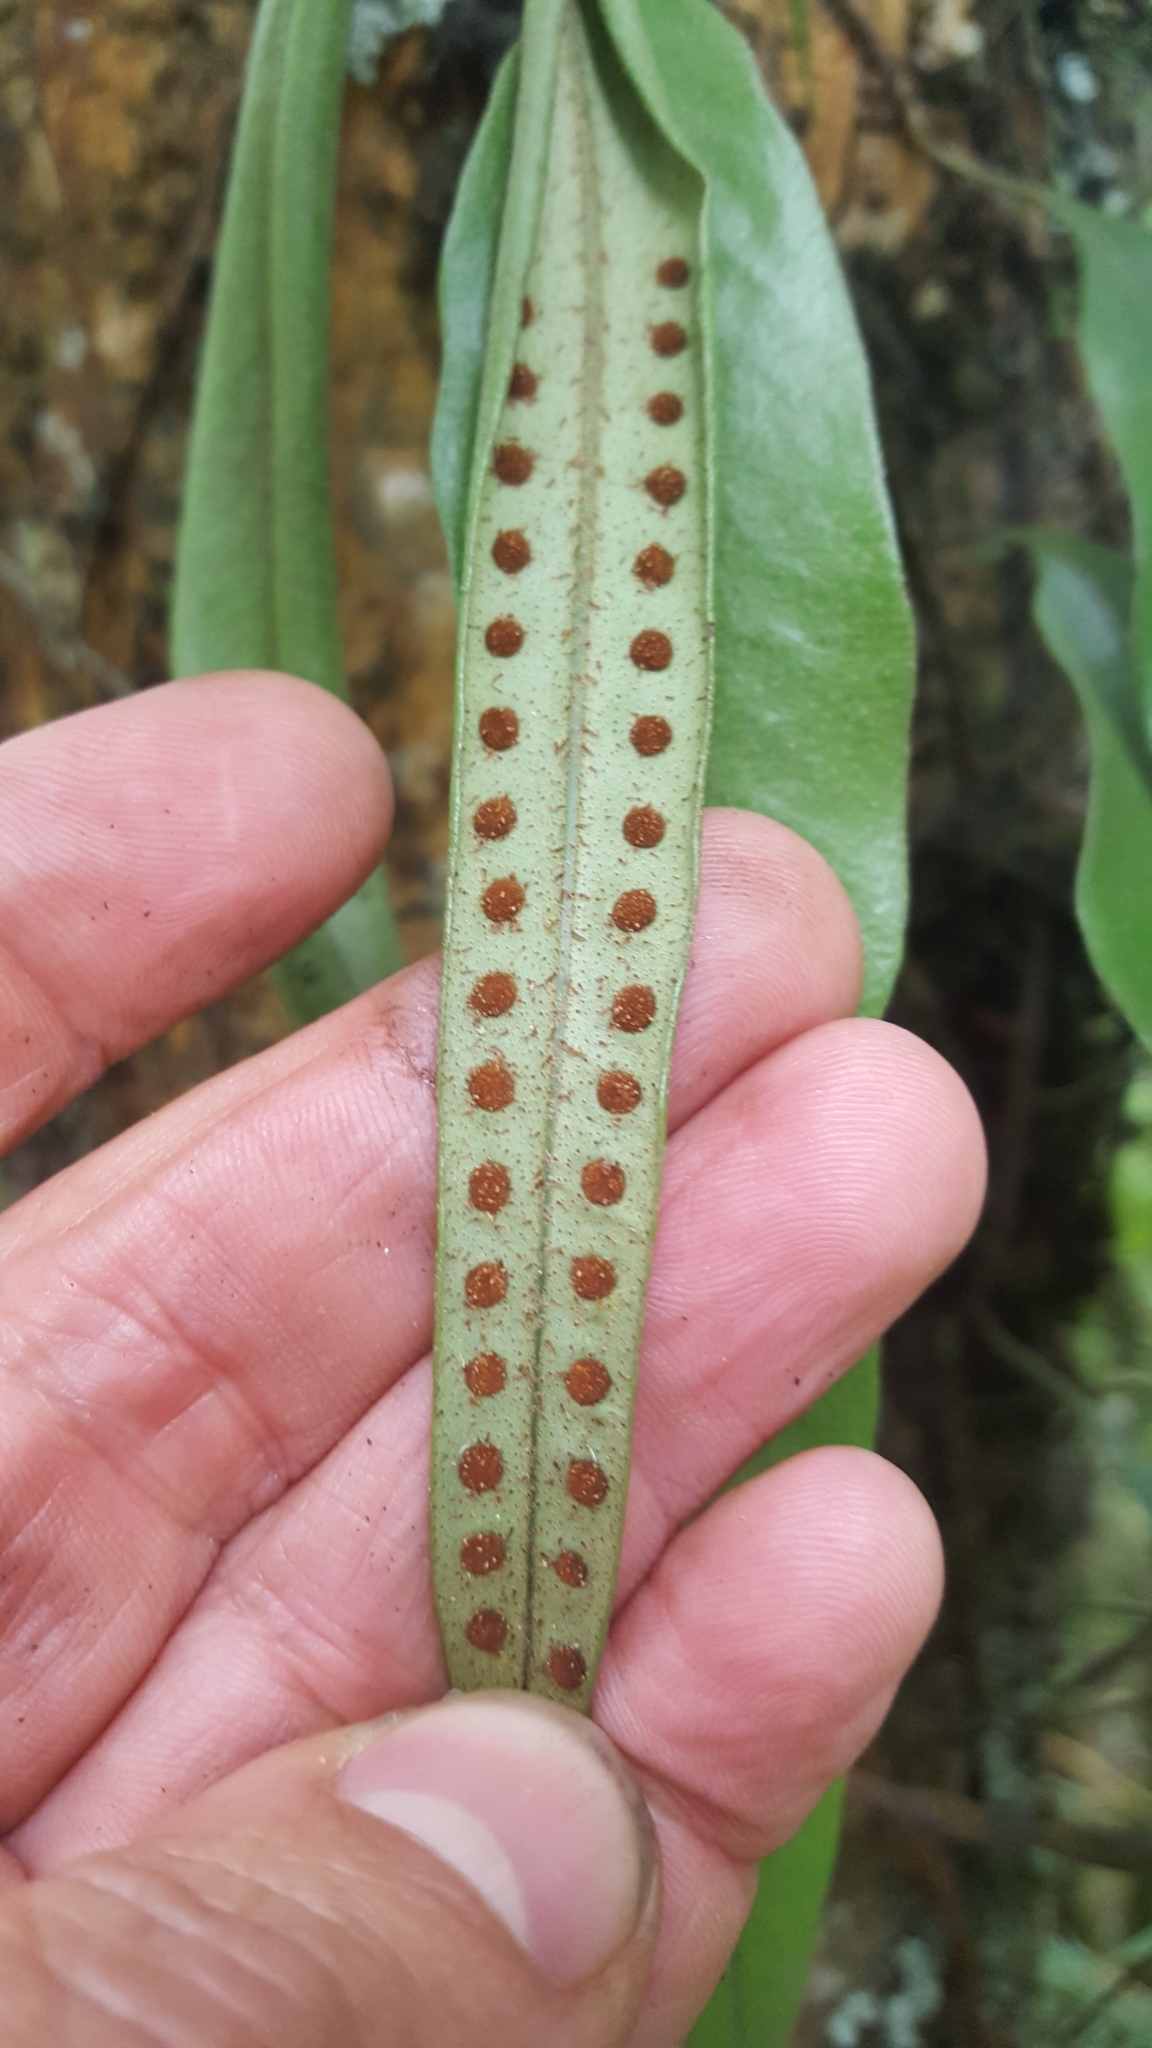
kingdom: Plantae
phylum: Tracheophyta
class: Polypodiopsida
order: Polypodiales
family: Polypodiaceae
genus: Pleopeltis
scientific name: Pleopeltis macrocarpa
